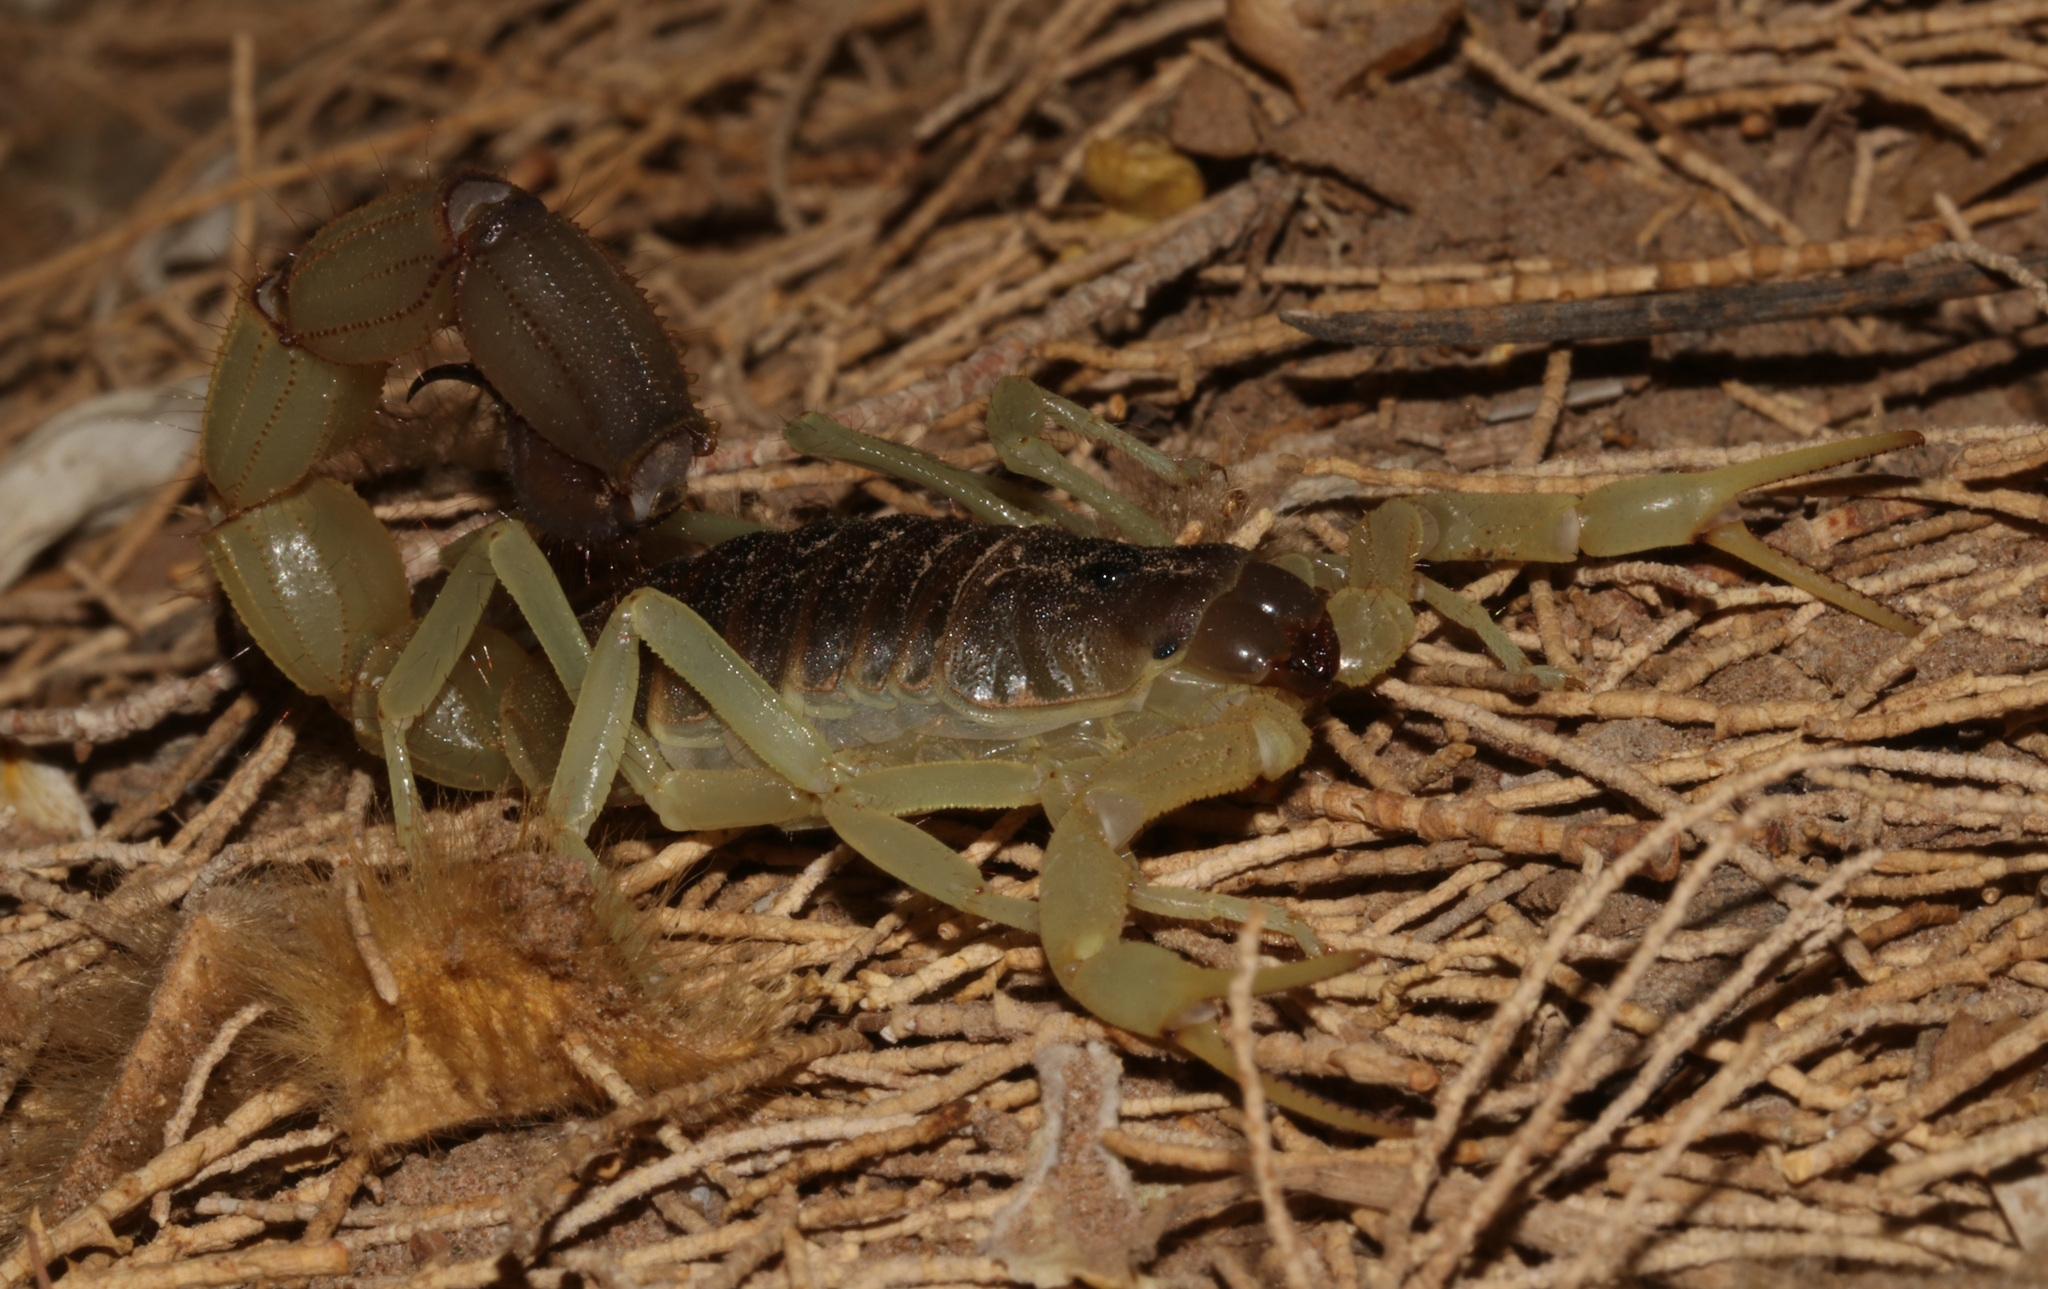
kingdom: Animalia
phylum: Arthropoda
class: Arachnida
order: Scorpiones
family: Buthidae
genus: Parabuthus
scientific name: Parabuthus schlechteri
